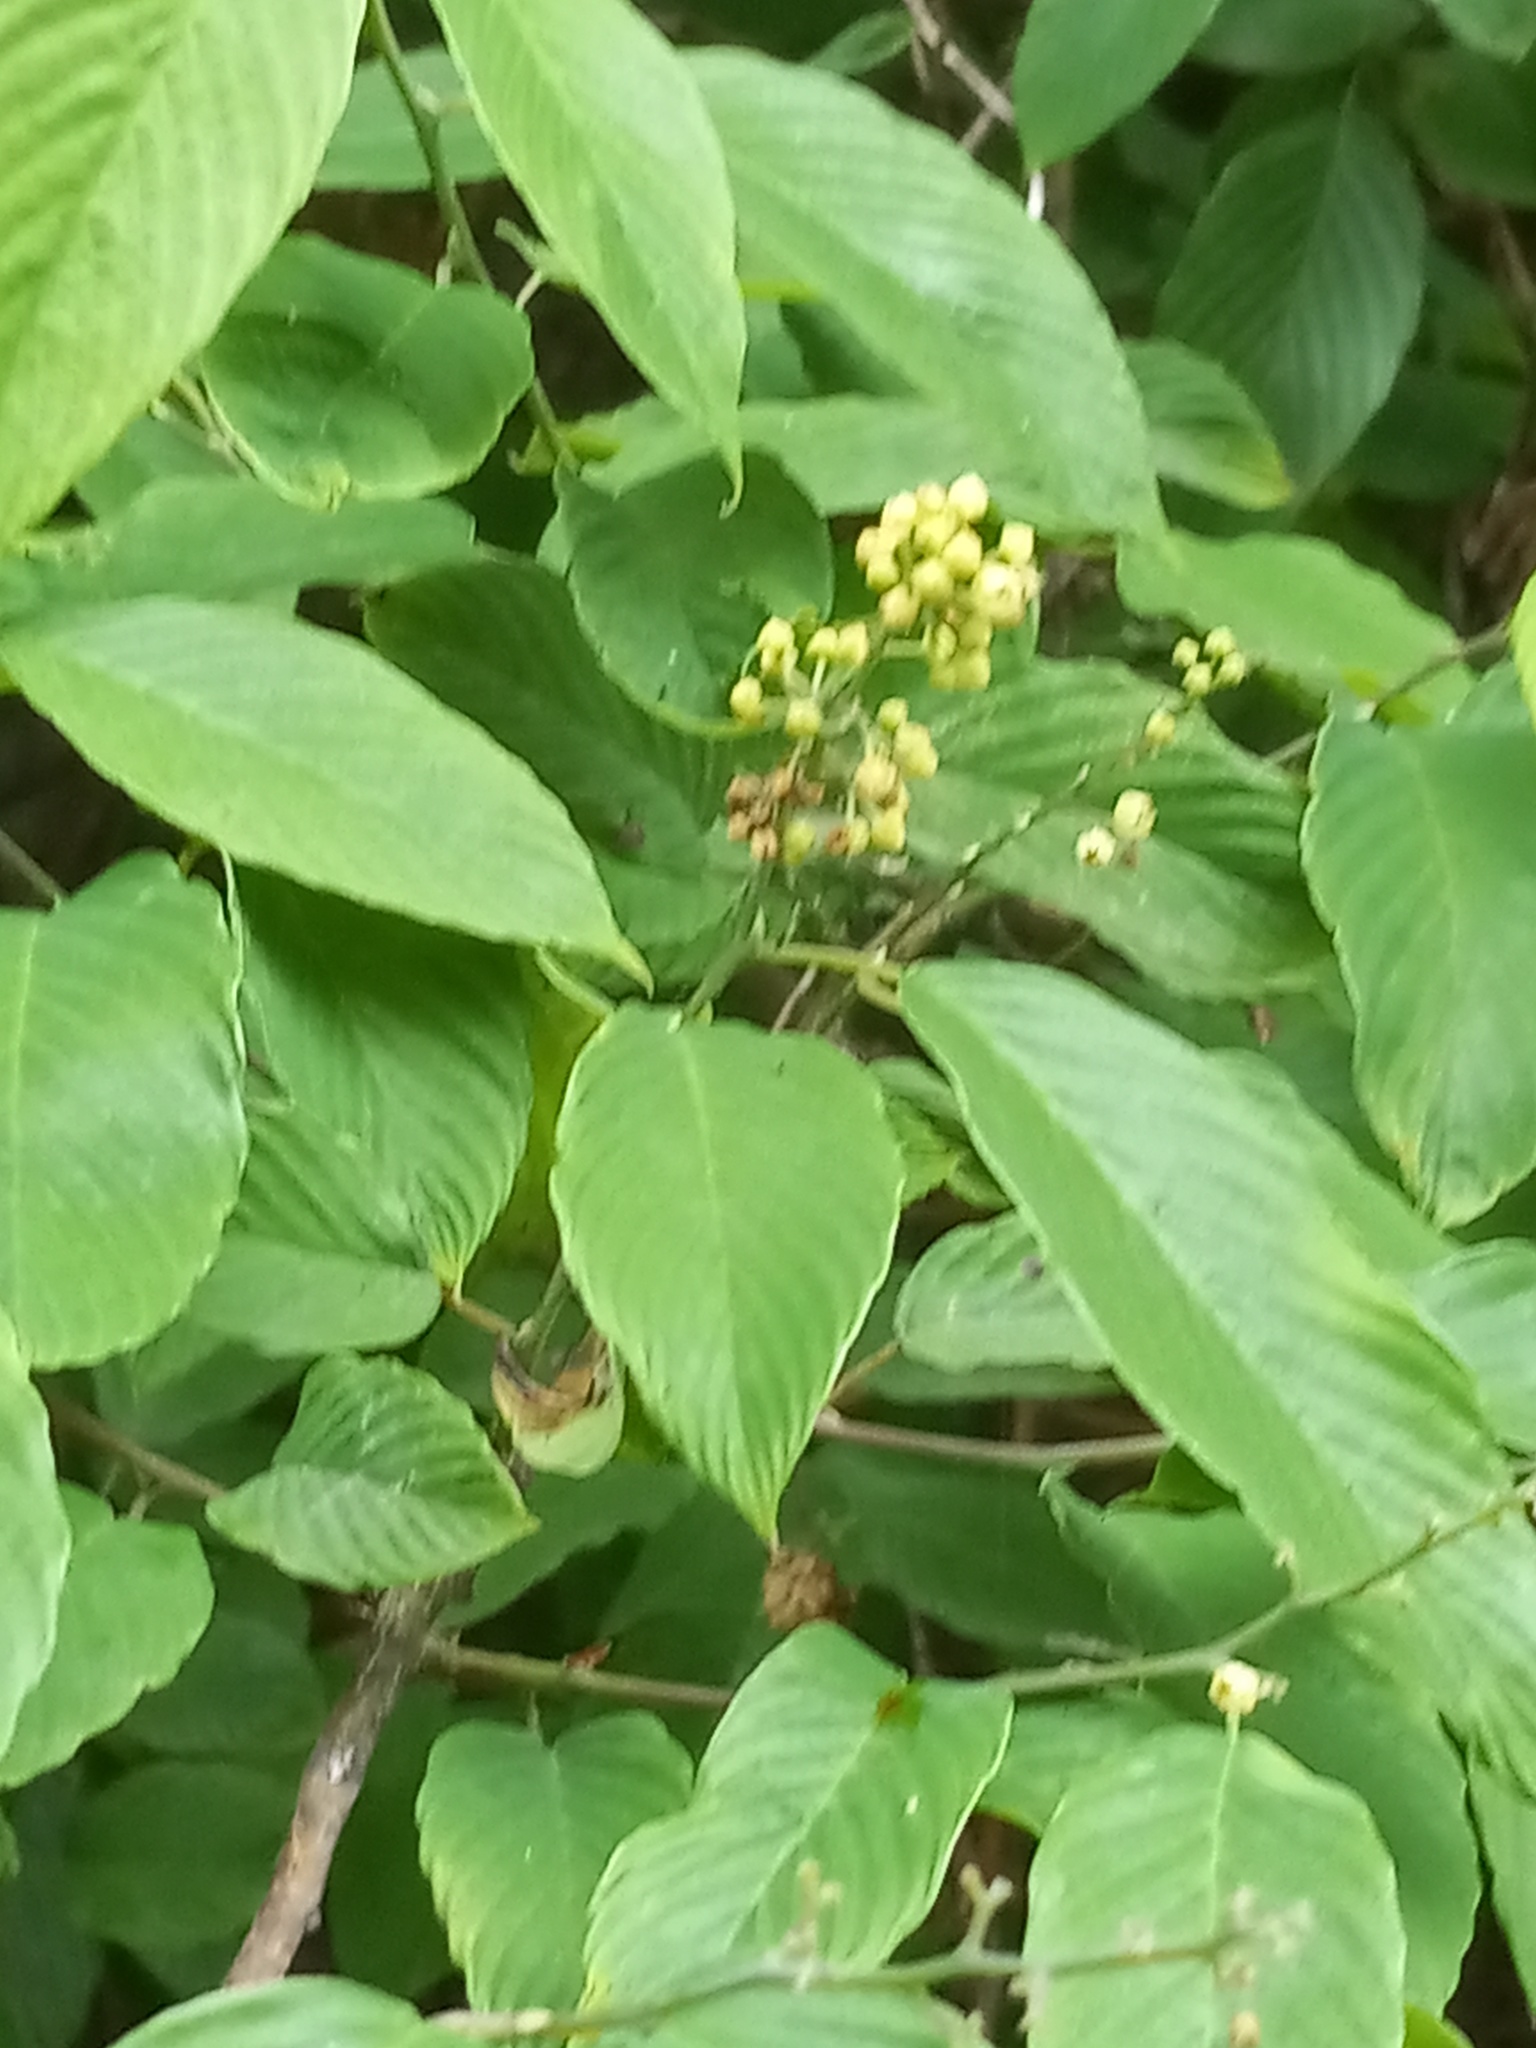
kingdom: Plantae
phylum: Tracheophyta
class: Magnoliopsida
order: Rosales
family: Rhamnaceae
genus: Berchemia
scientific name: Berchemia scandens
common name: Supplejack
